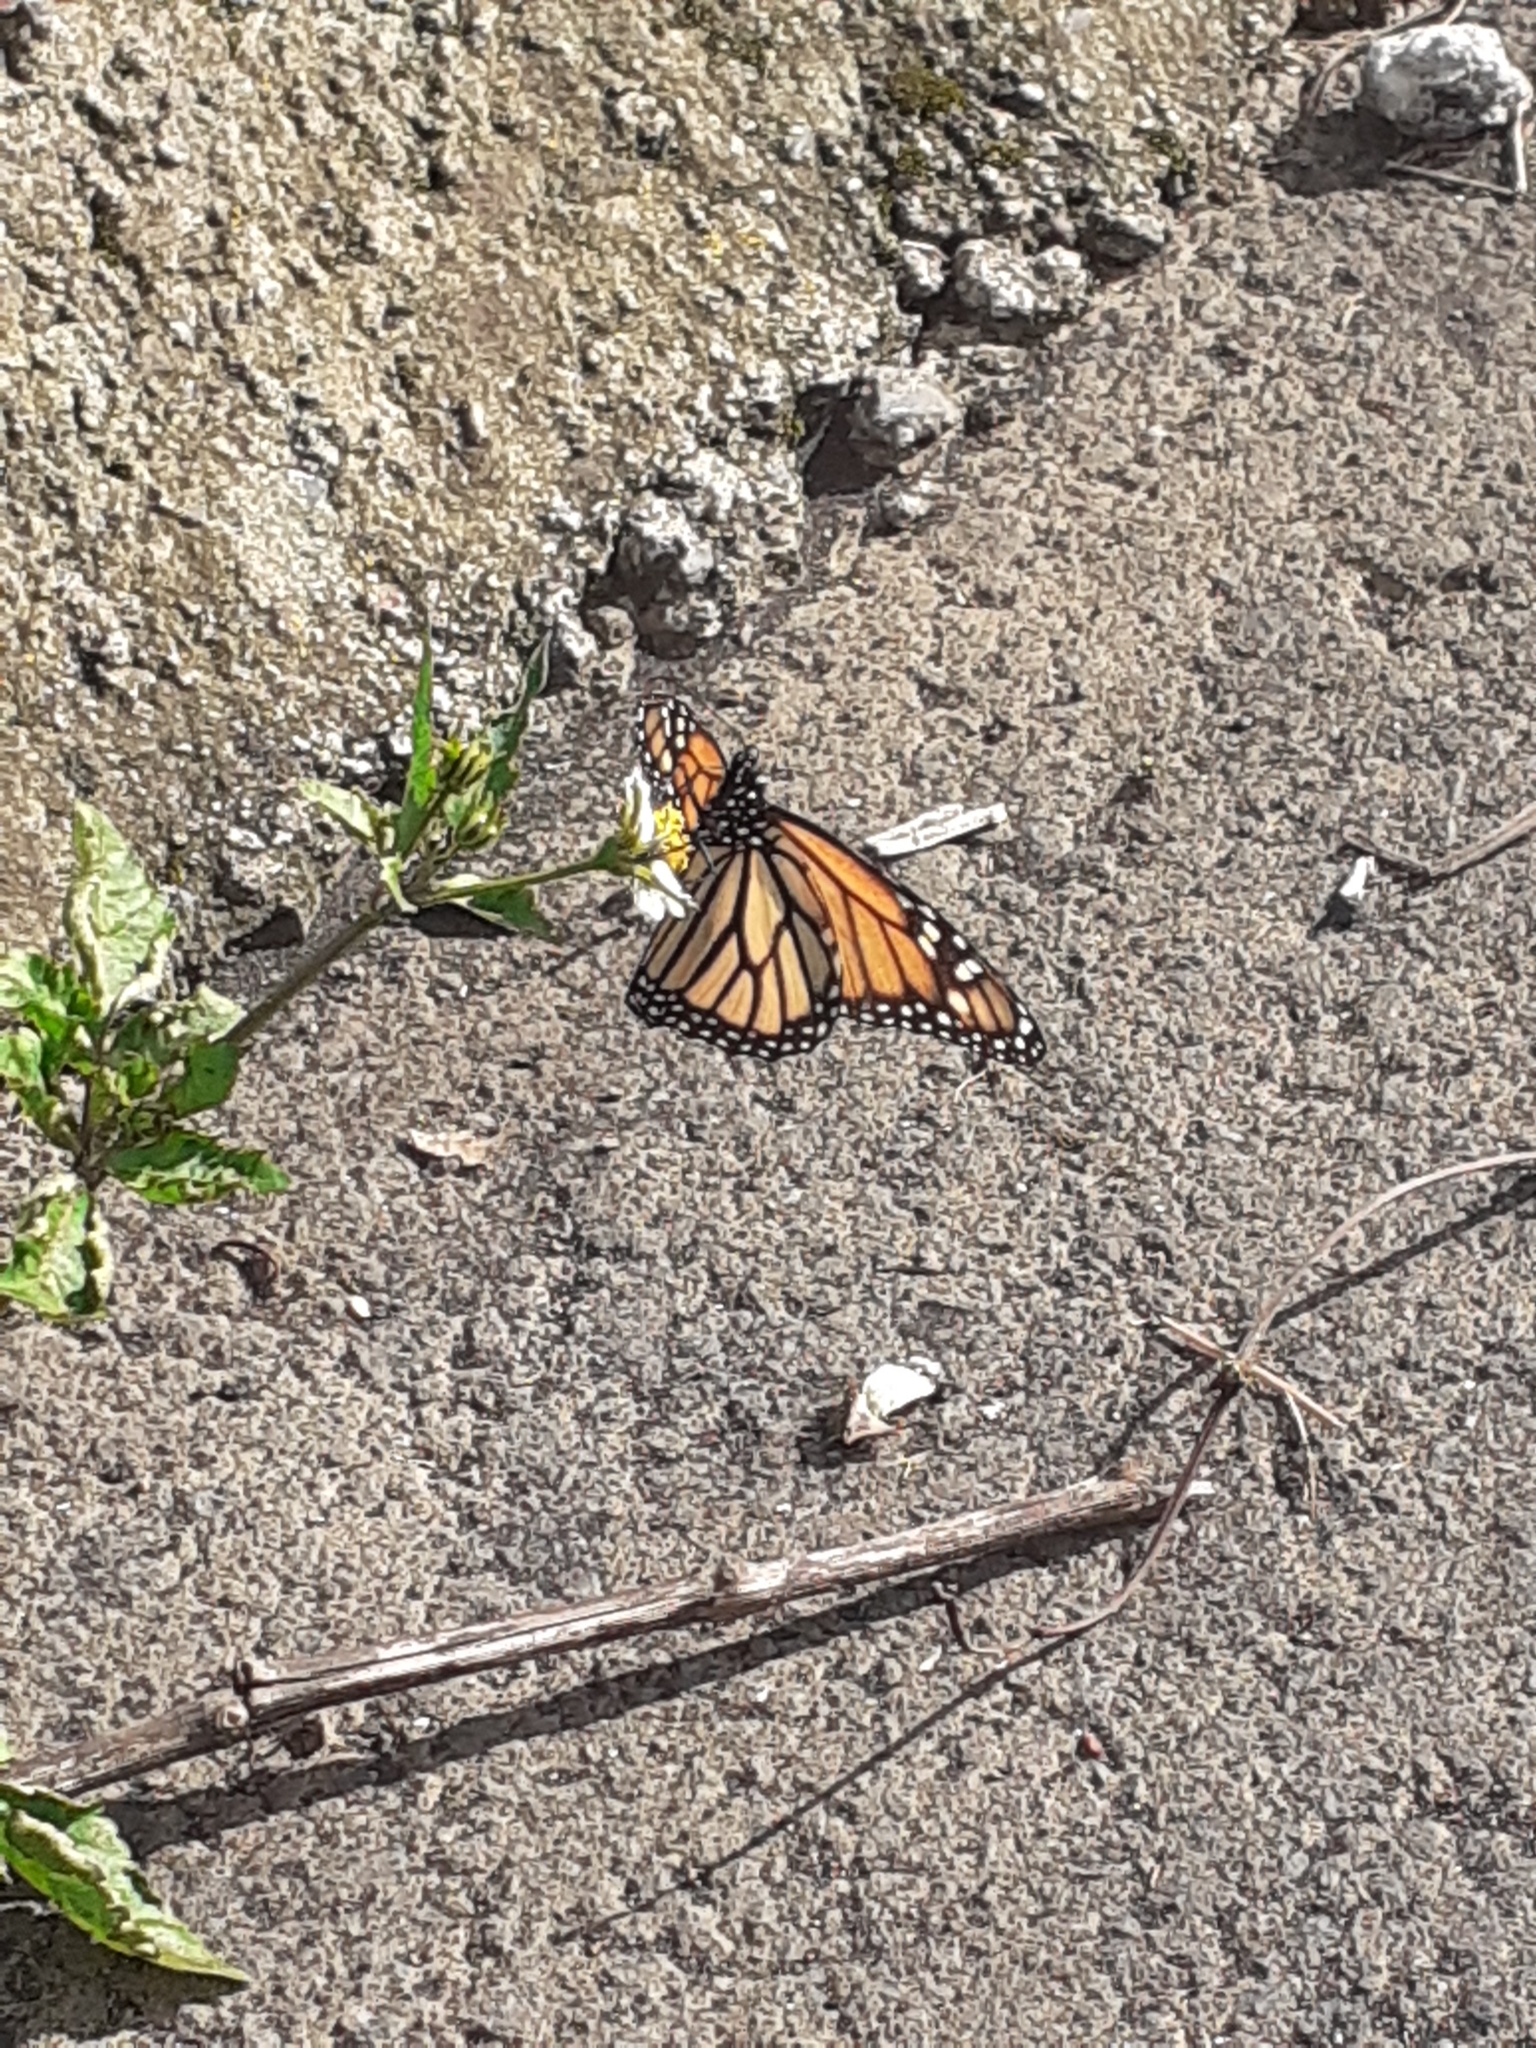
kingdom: Animalia
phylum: Arthropoda
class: Insecta
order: Lepidoptera
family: Nymphalidae
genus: Danaus
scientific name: Danaus plexippus
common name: Monarch
